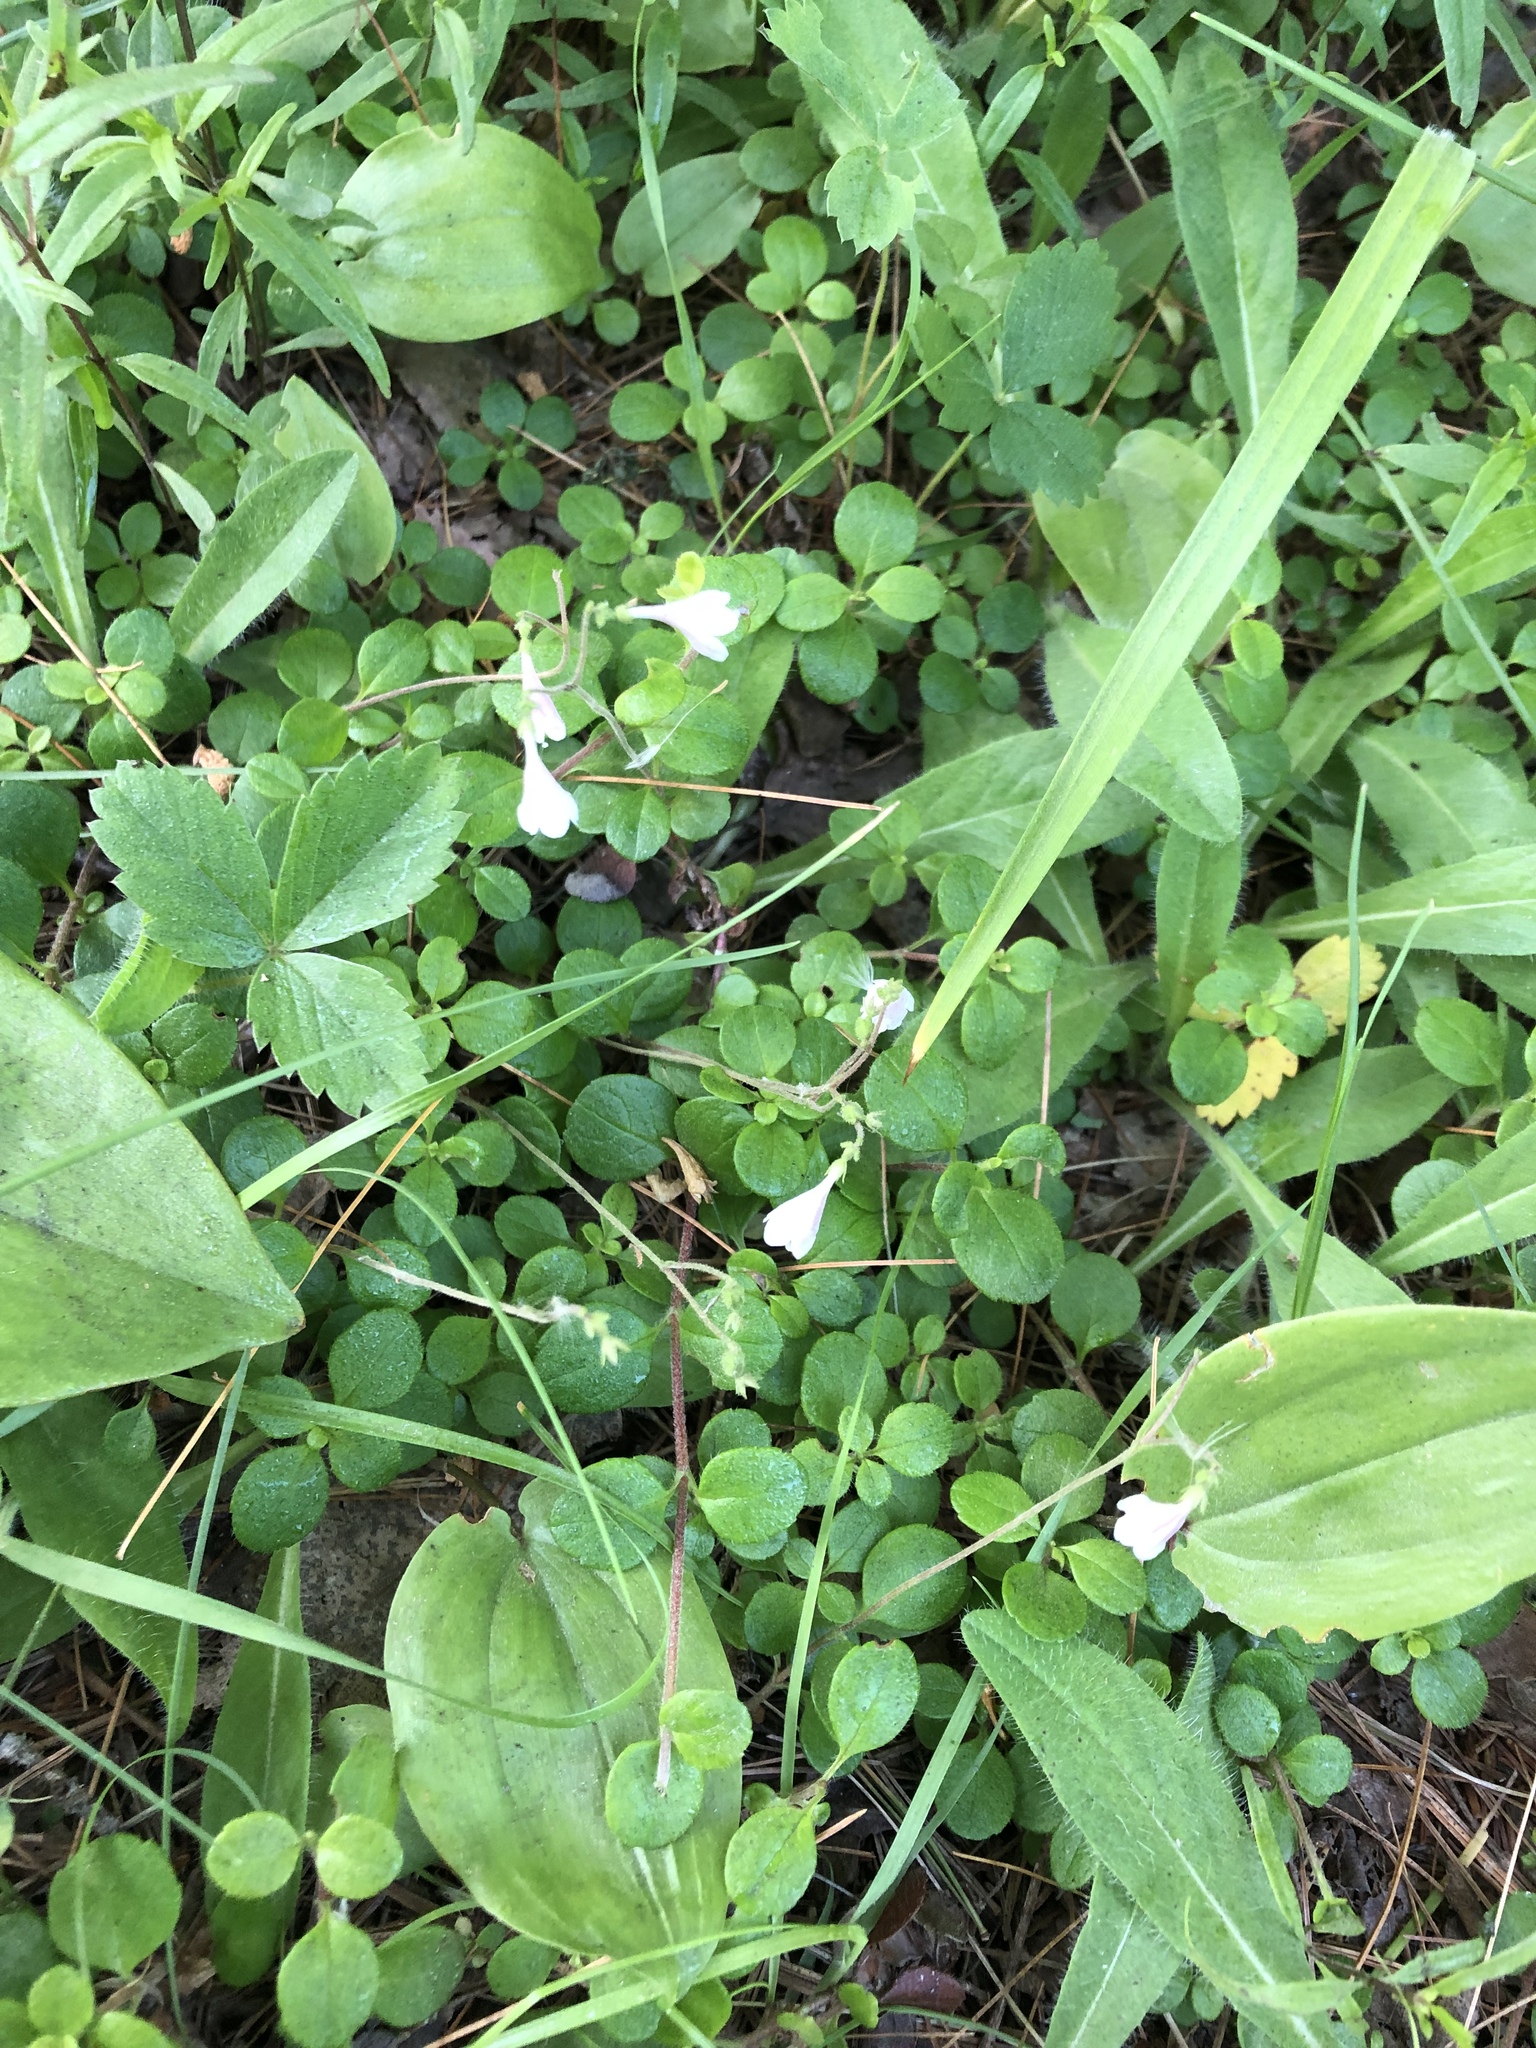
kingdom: Plantae
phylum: Tracheophyta
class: Magnoliopsida
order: Dipsacales
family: Caprifoliaceae
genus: Linnaea
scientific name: Linnaea borealis
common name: Twinflower
